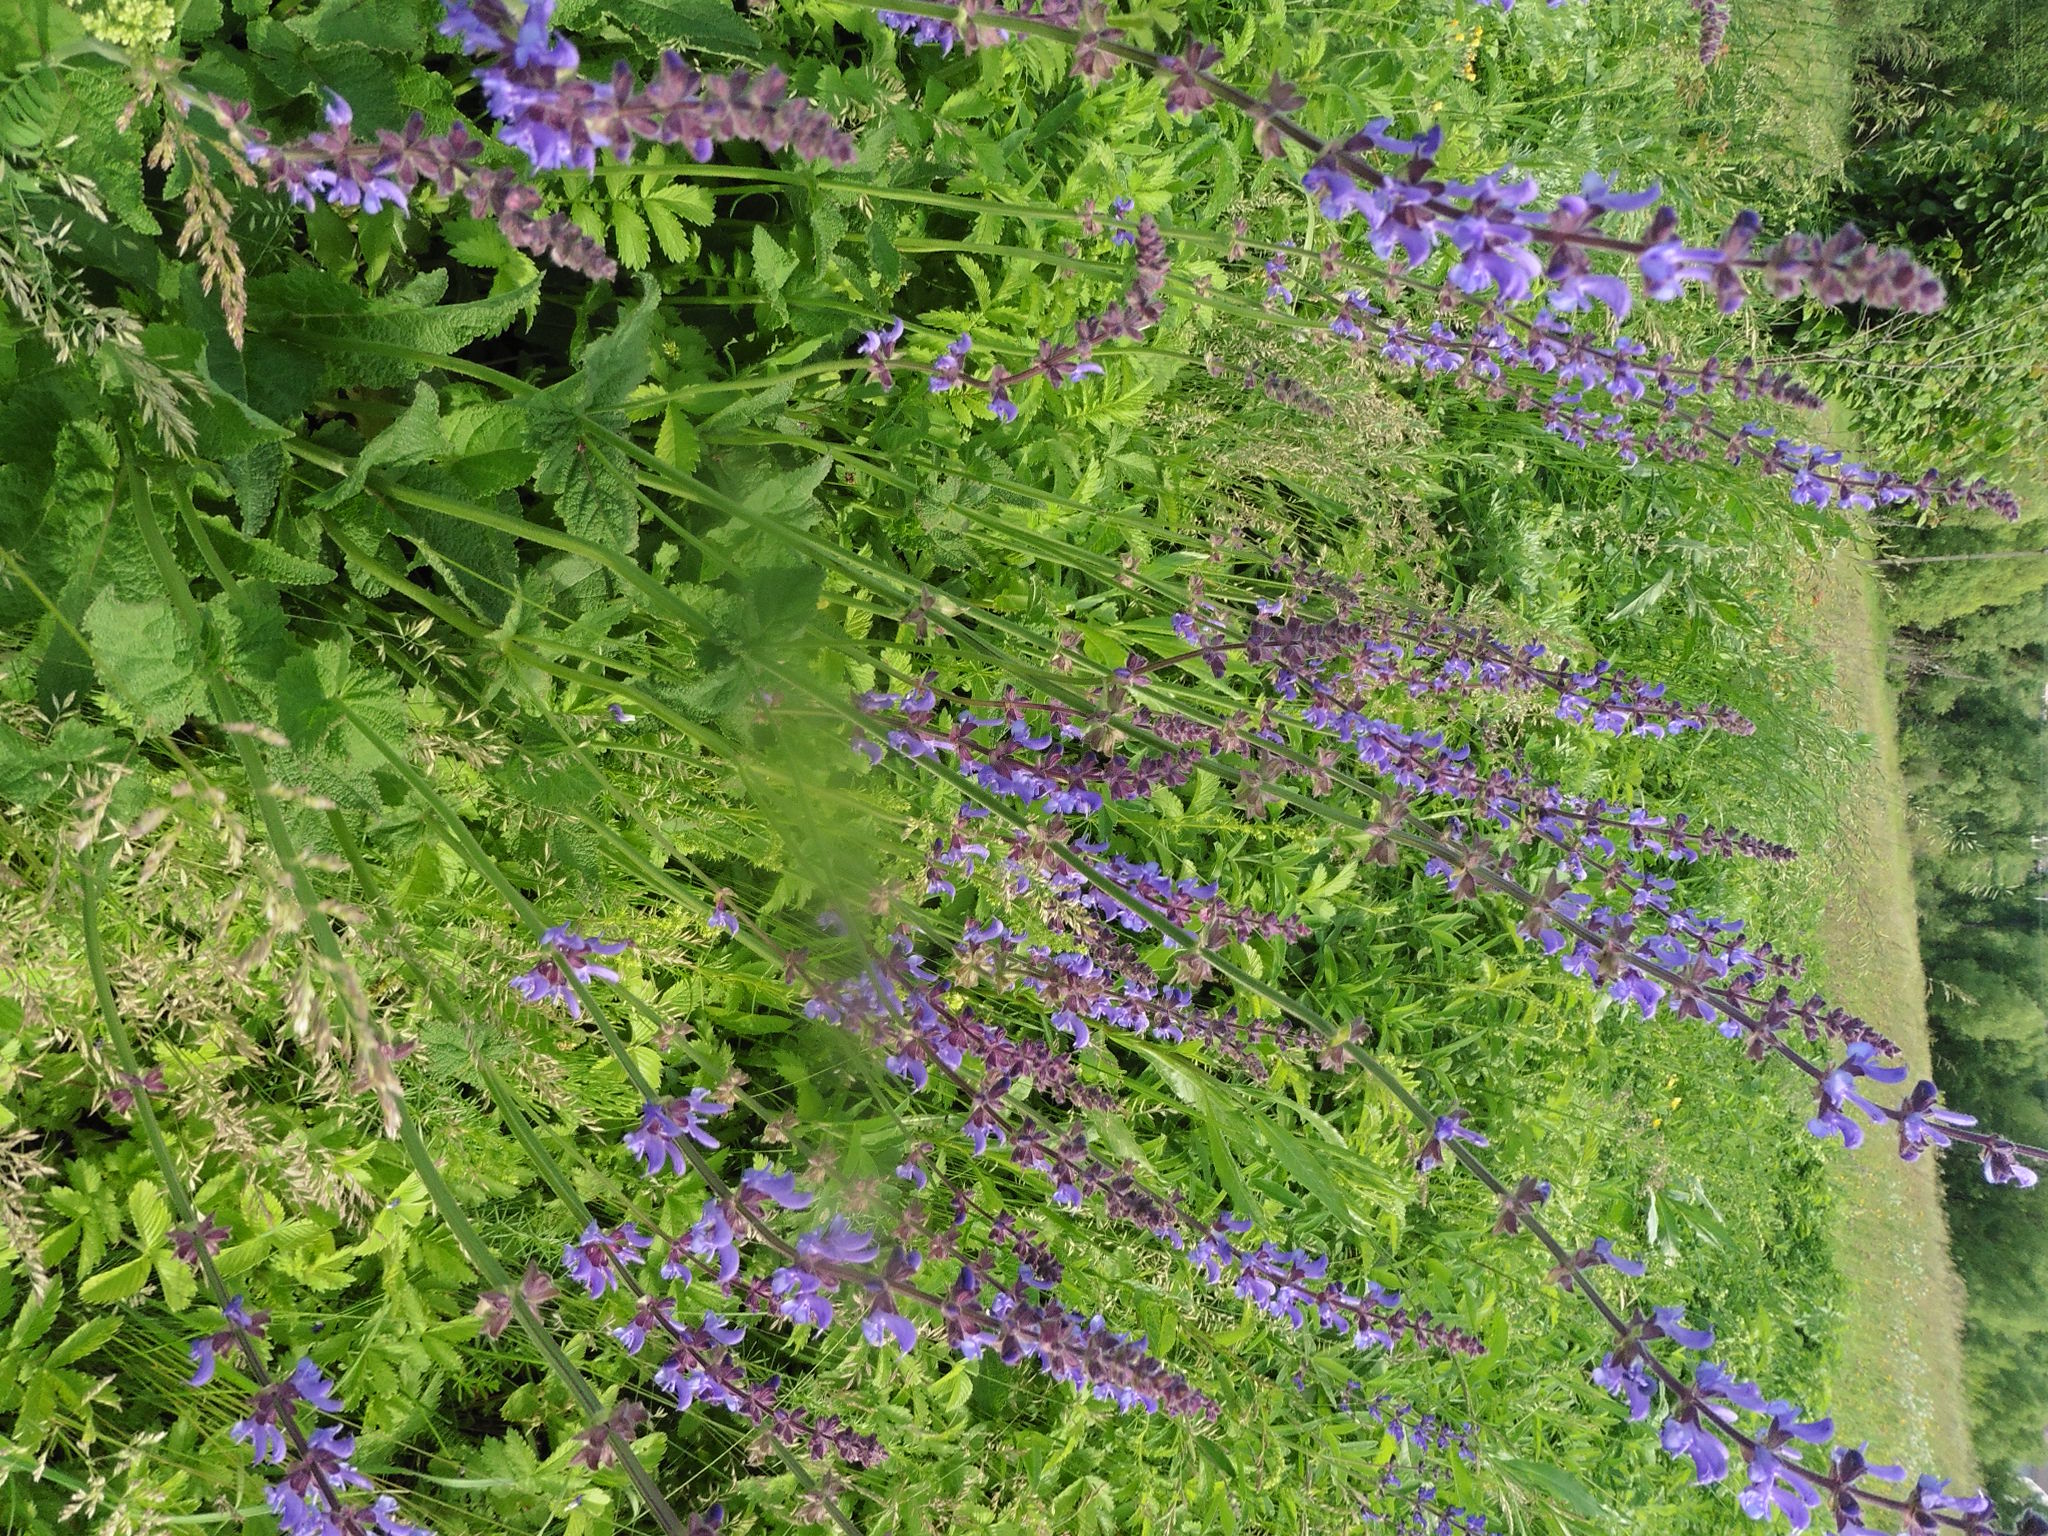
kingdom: Plantae
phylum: Tracheophyta
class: Magnoliopsida
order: Lamiales
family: Lamiaceae
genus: Salvia
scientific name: Salvia dumetorum
